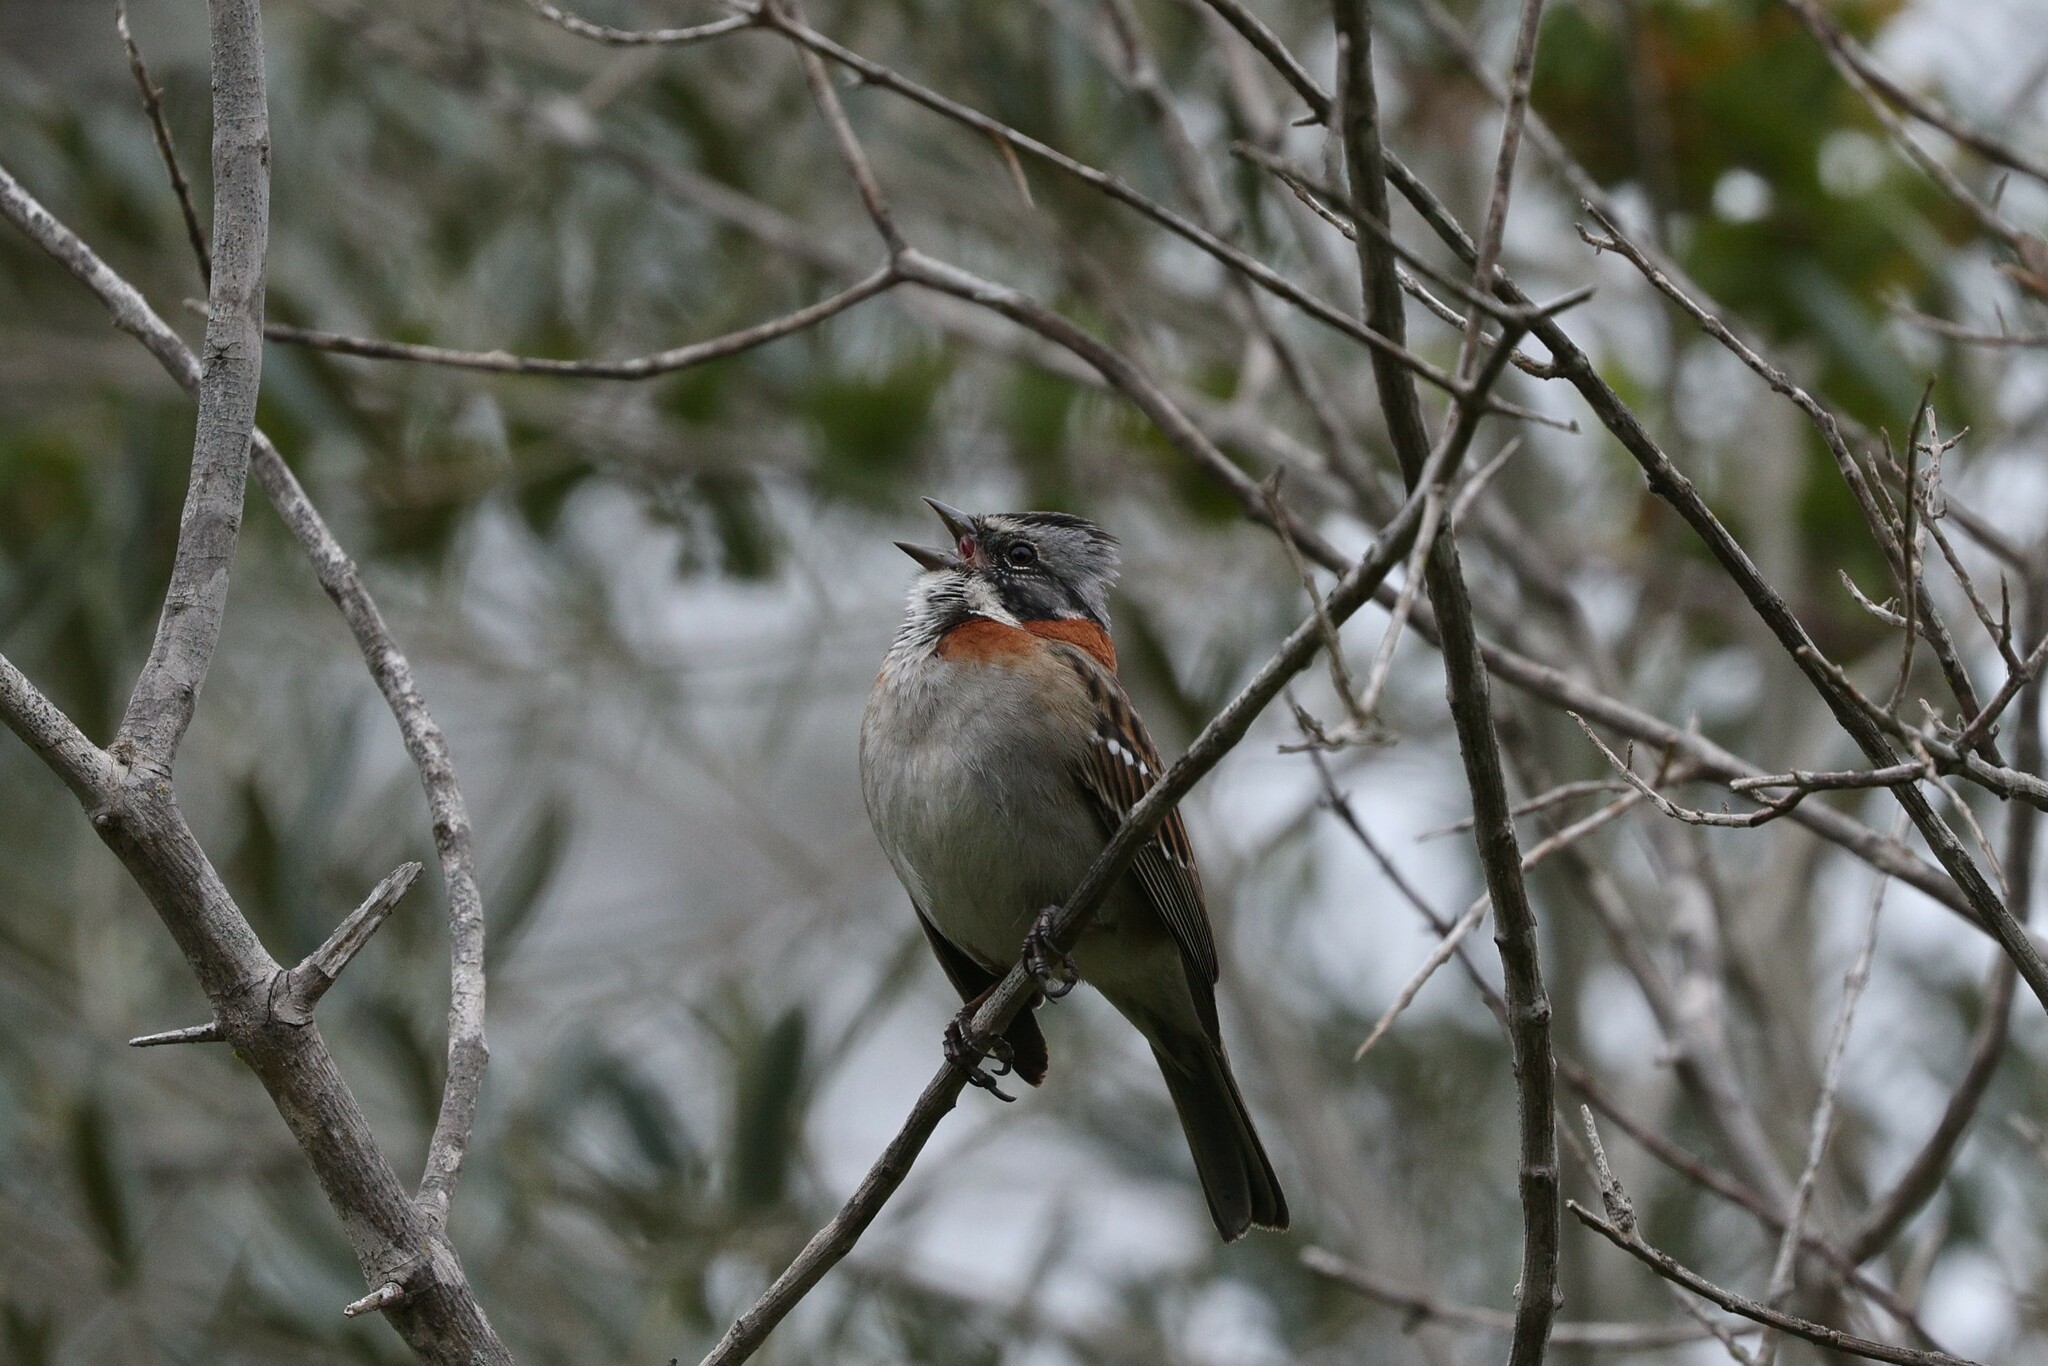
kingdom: Animalia
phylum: Chordata
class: Aves
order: Passeriformes
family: Passerellidae
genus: Zonotrichia
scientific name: Zonotrichia capensis
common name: Rufous-collared sparrow
